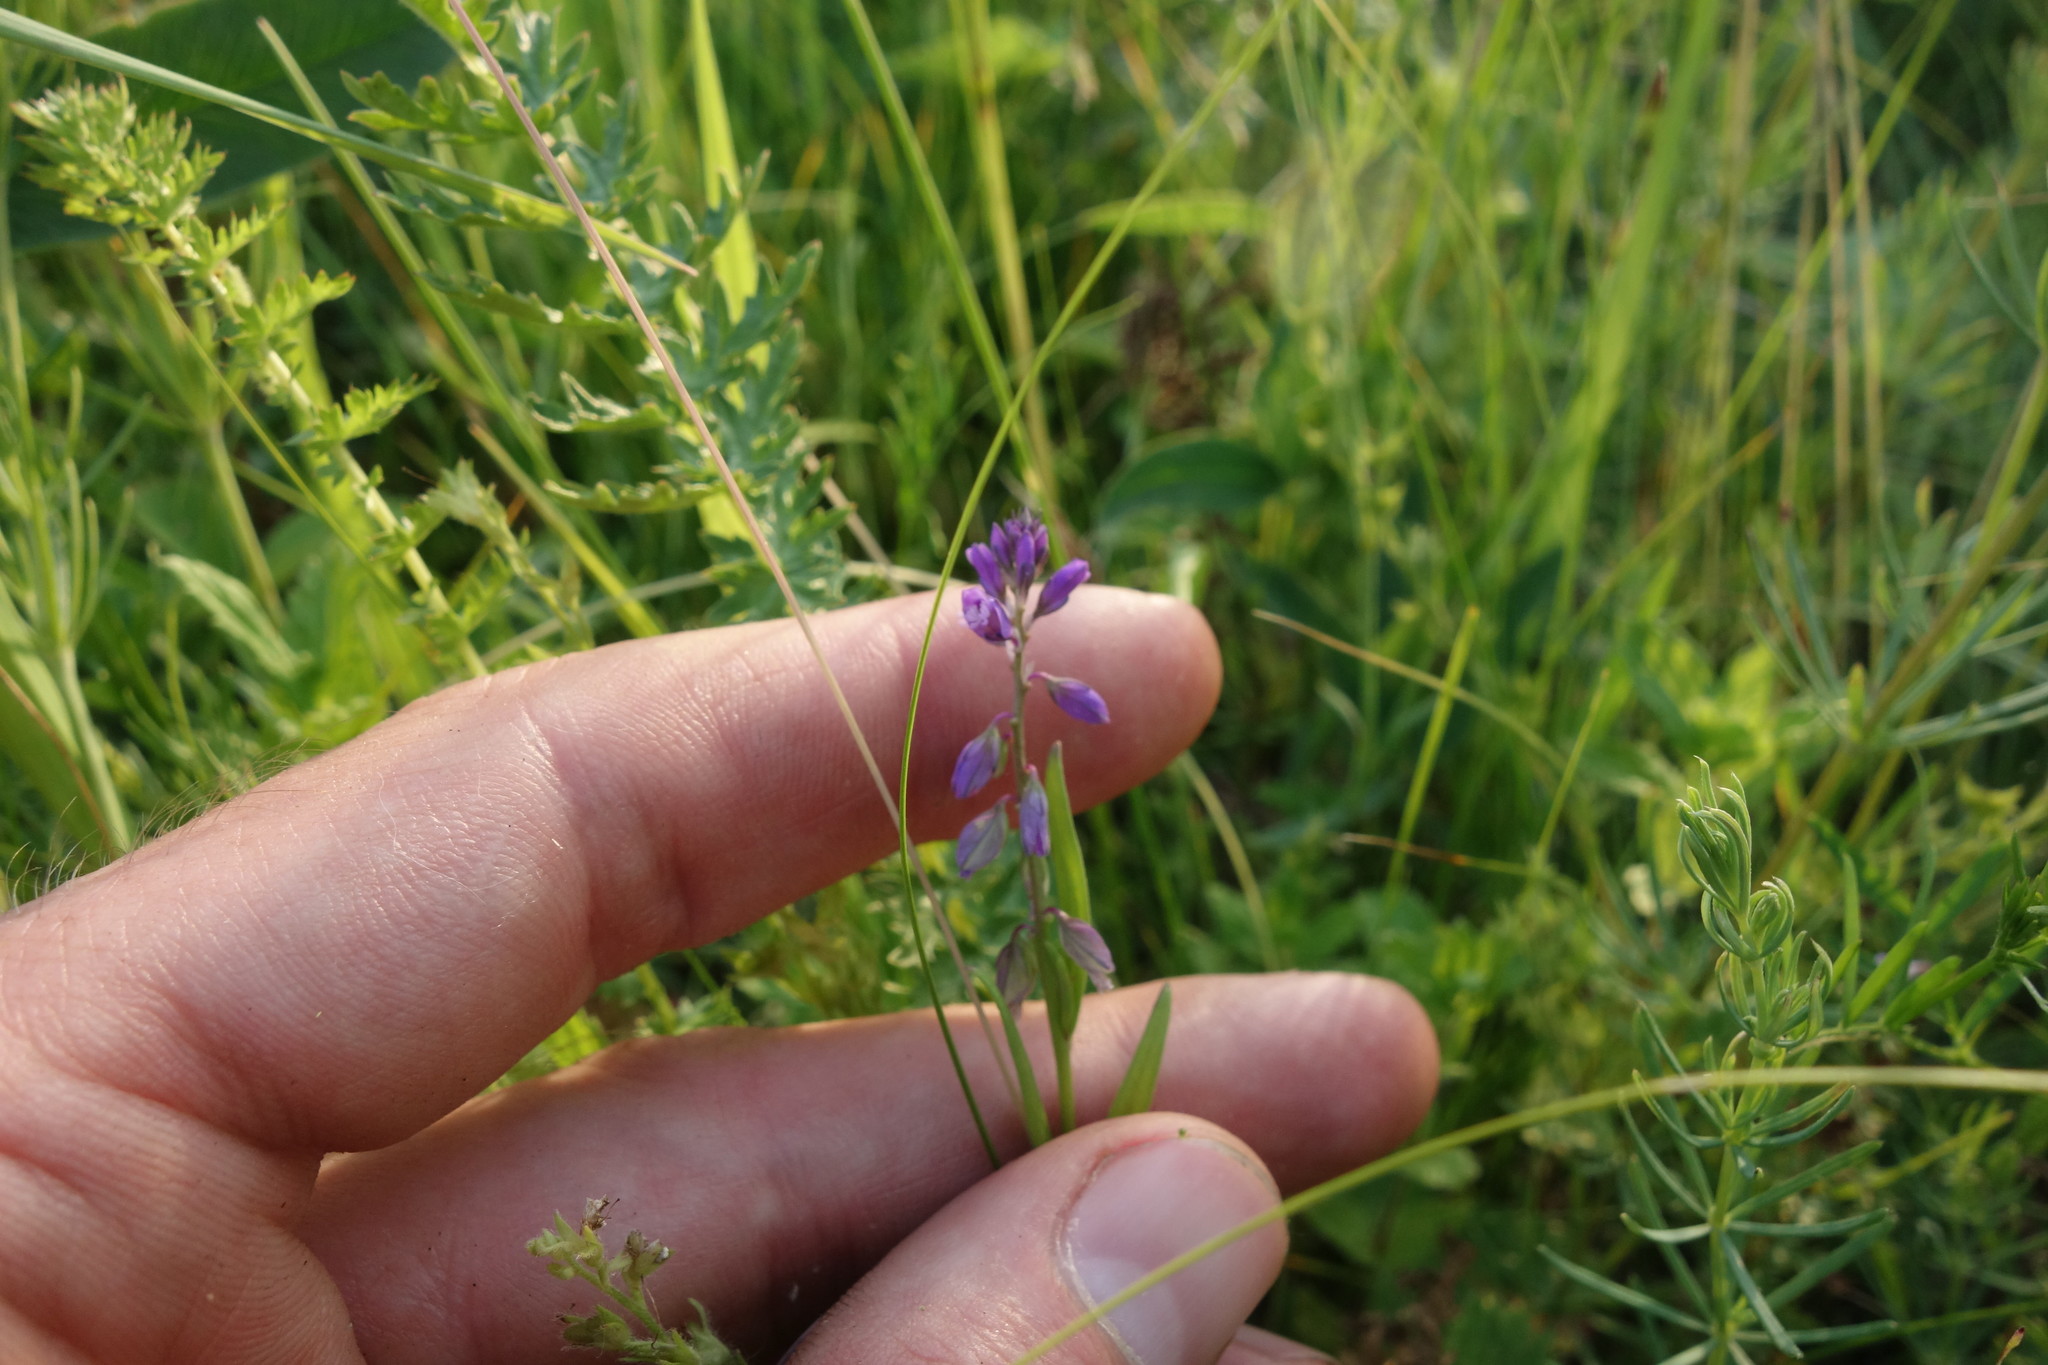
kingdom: Plantae
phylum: Tracheophyta
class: Magnoliopsida
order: Fabales
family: Polygalaceae
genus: Polygala
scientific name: Polygala comosa
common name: Tufted milkwort
